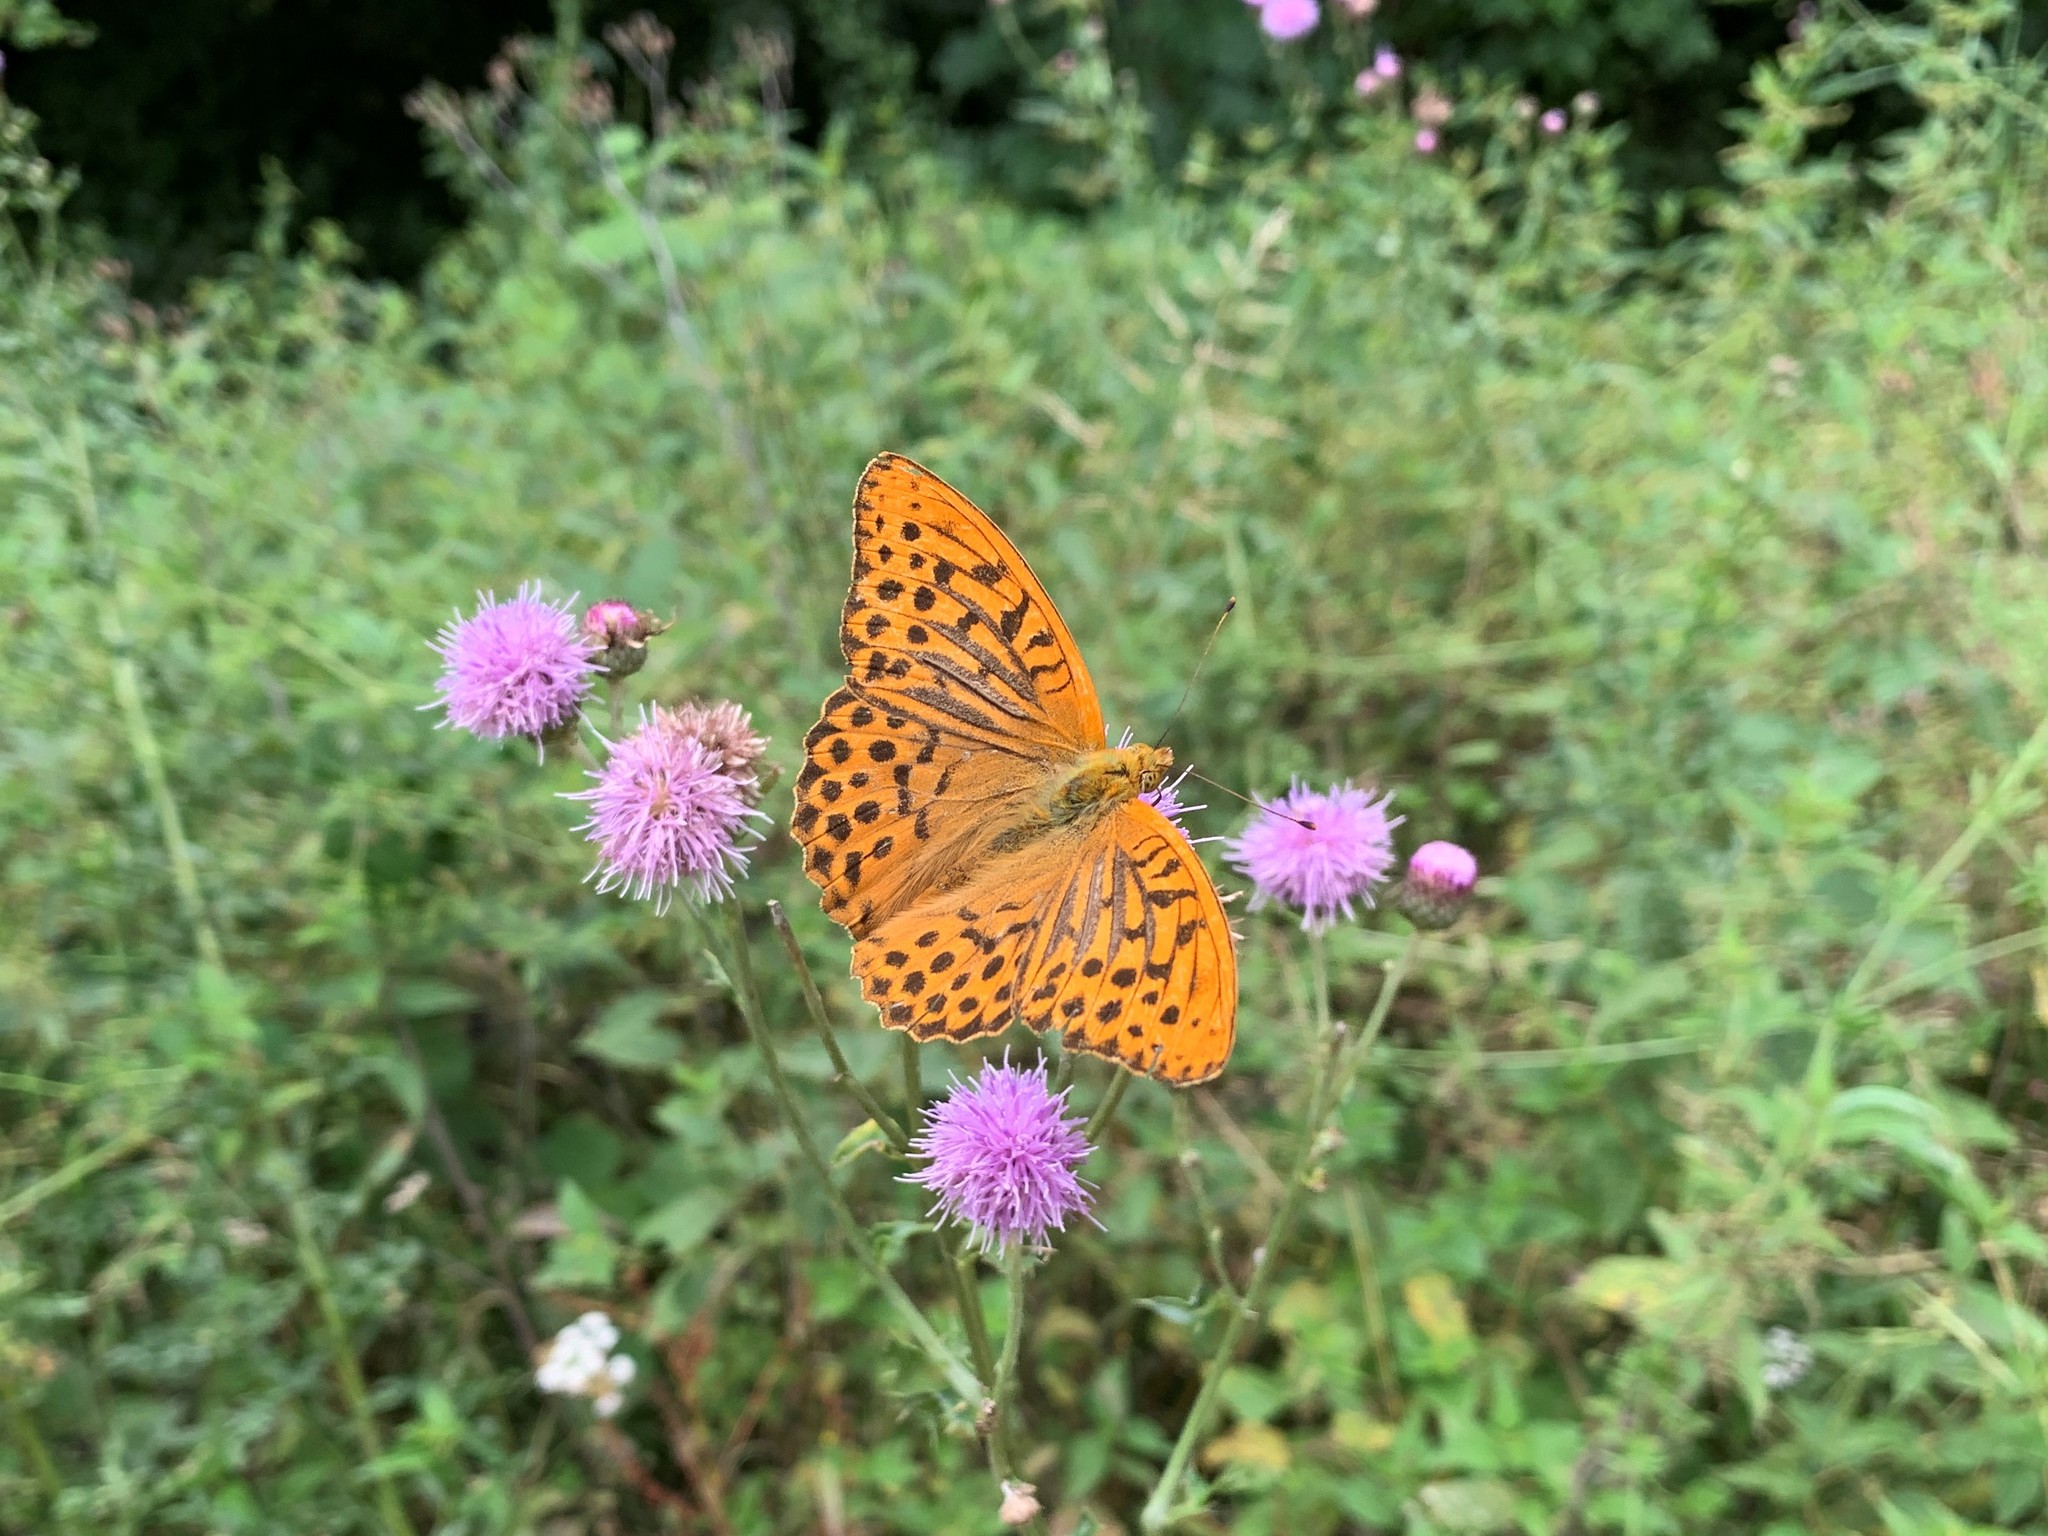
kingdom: Animalia
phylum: Arthropoda
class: Insecta
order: Lepidoptera
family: Nymphalidae
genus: Argynnis
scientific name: Argynnis paphia
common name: Silver-washed fritillary
